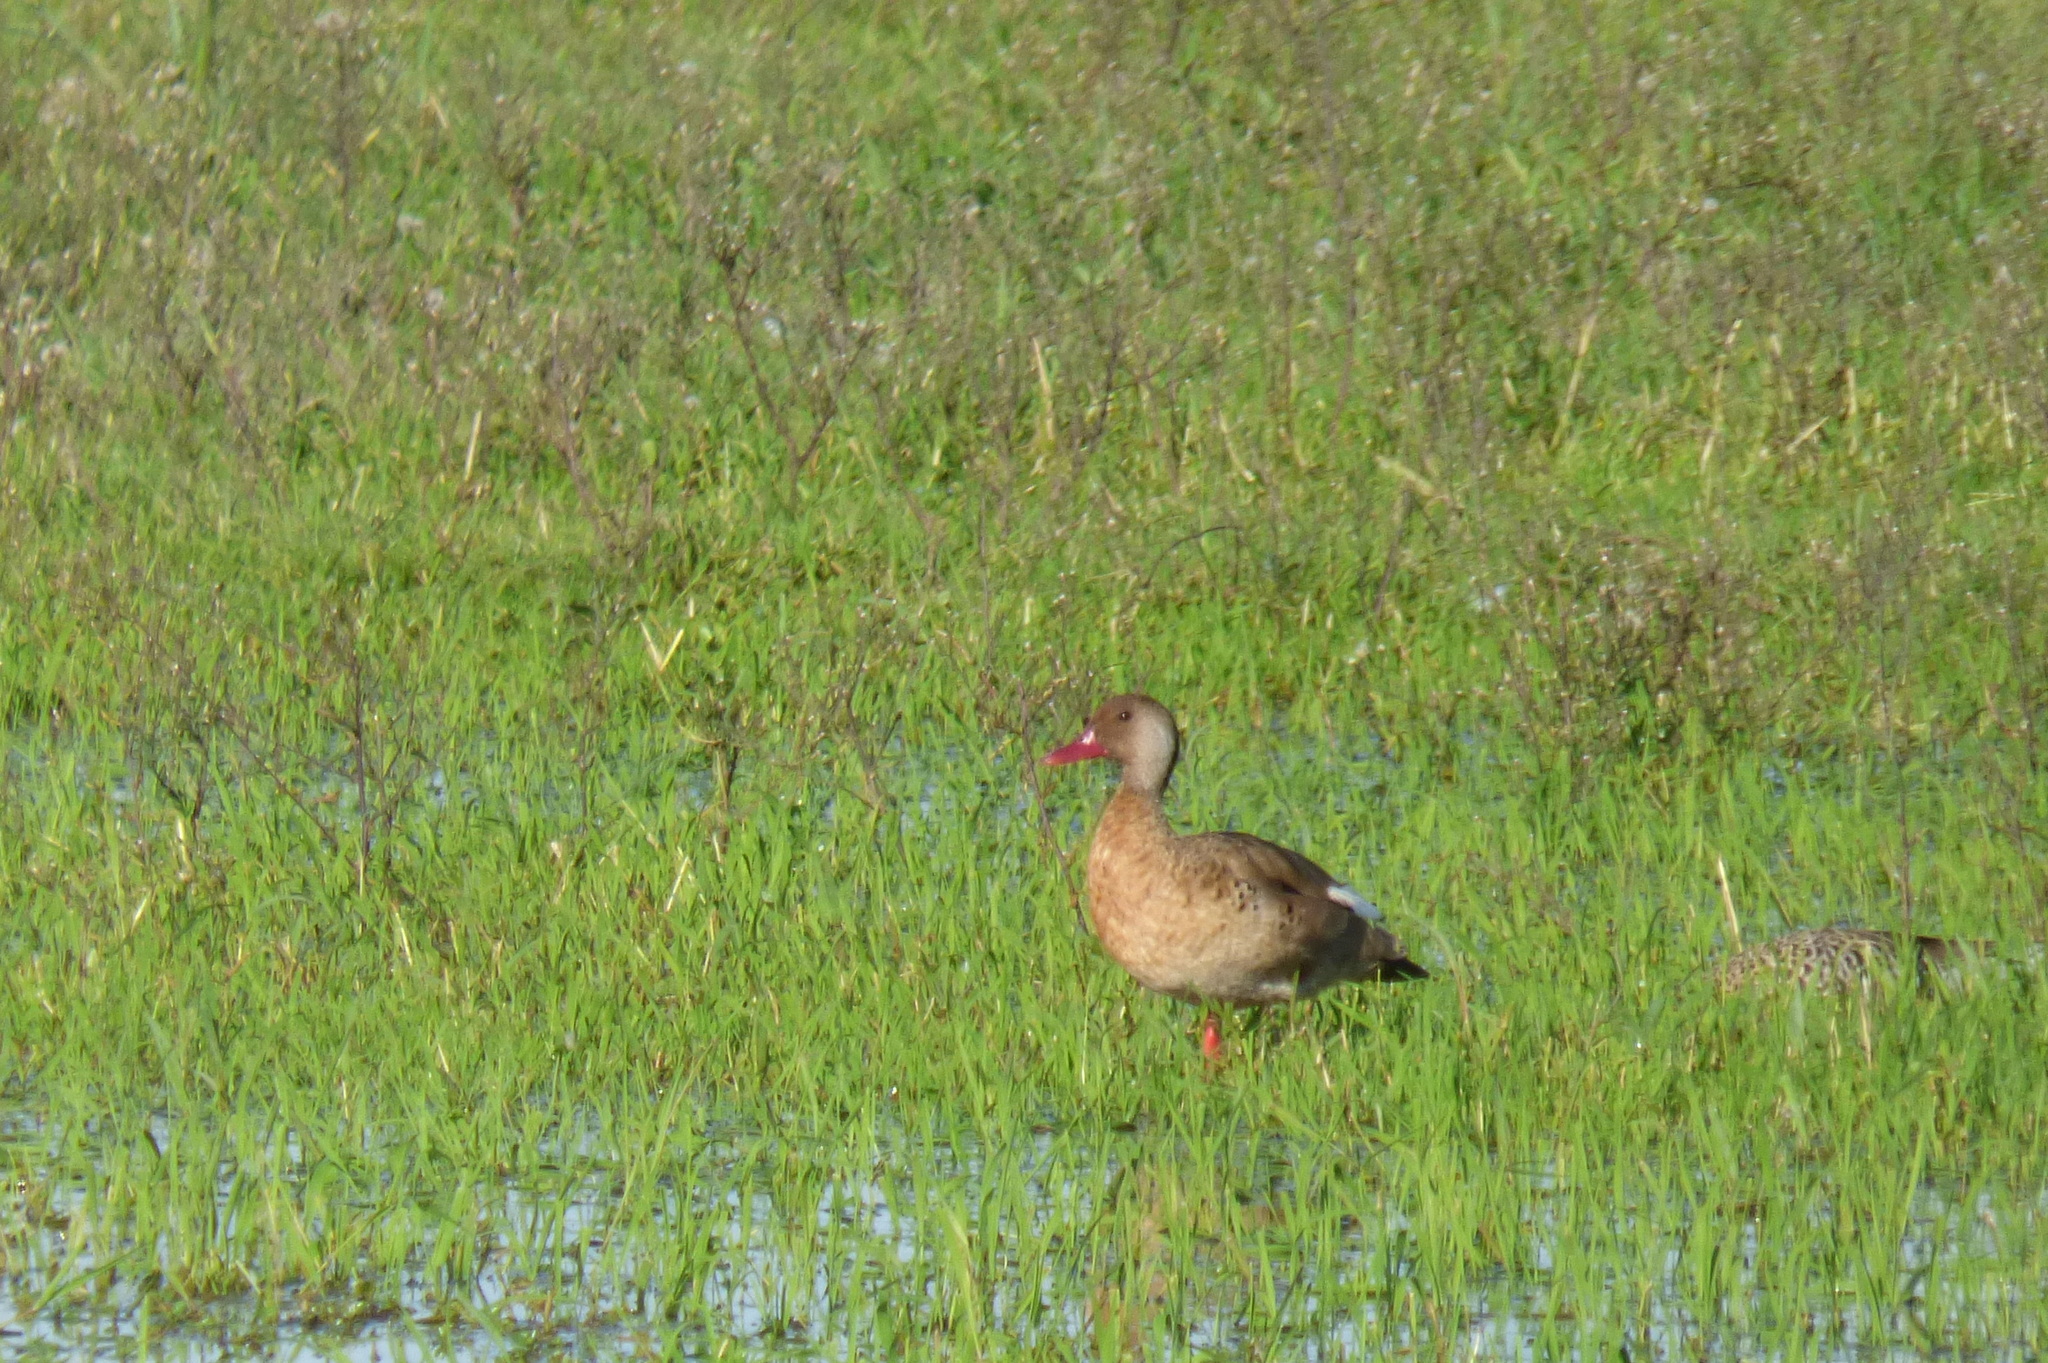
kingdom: Animalia
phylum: Chordata
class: Aves
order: Anseriformes
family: Anatidae
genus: Amazonetta
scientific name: Amazonetta brasiliensis
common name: Brazilian teal
